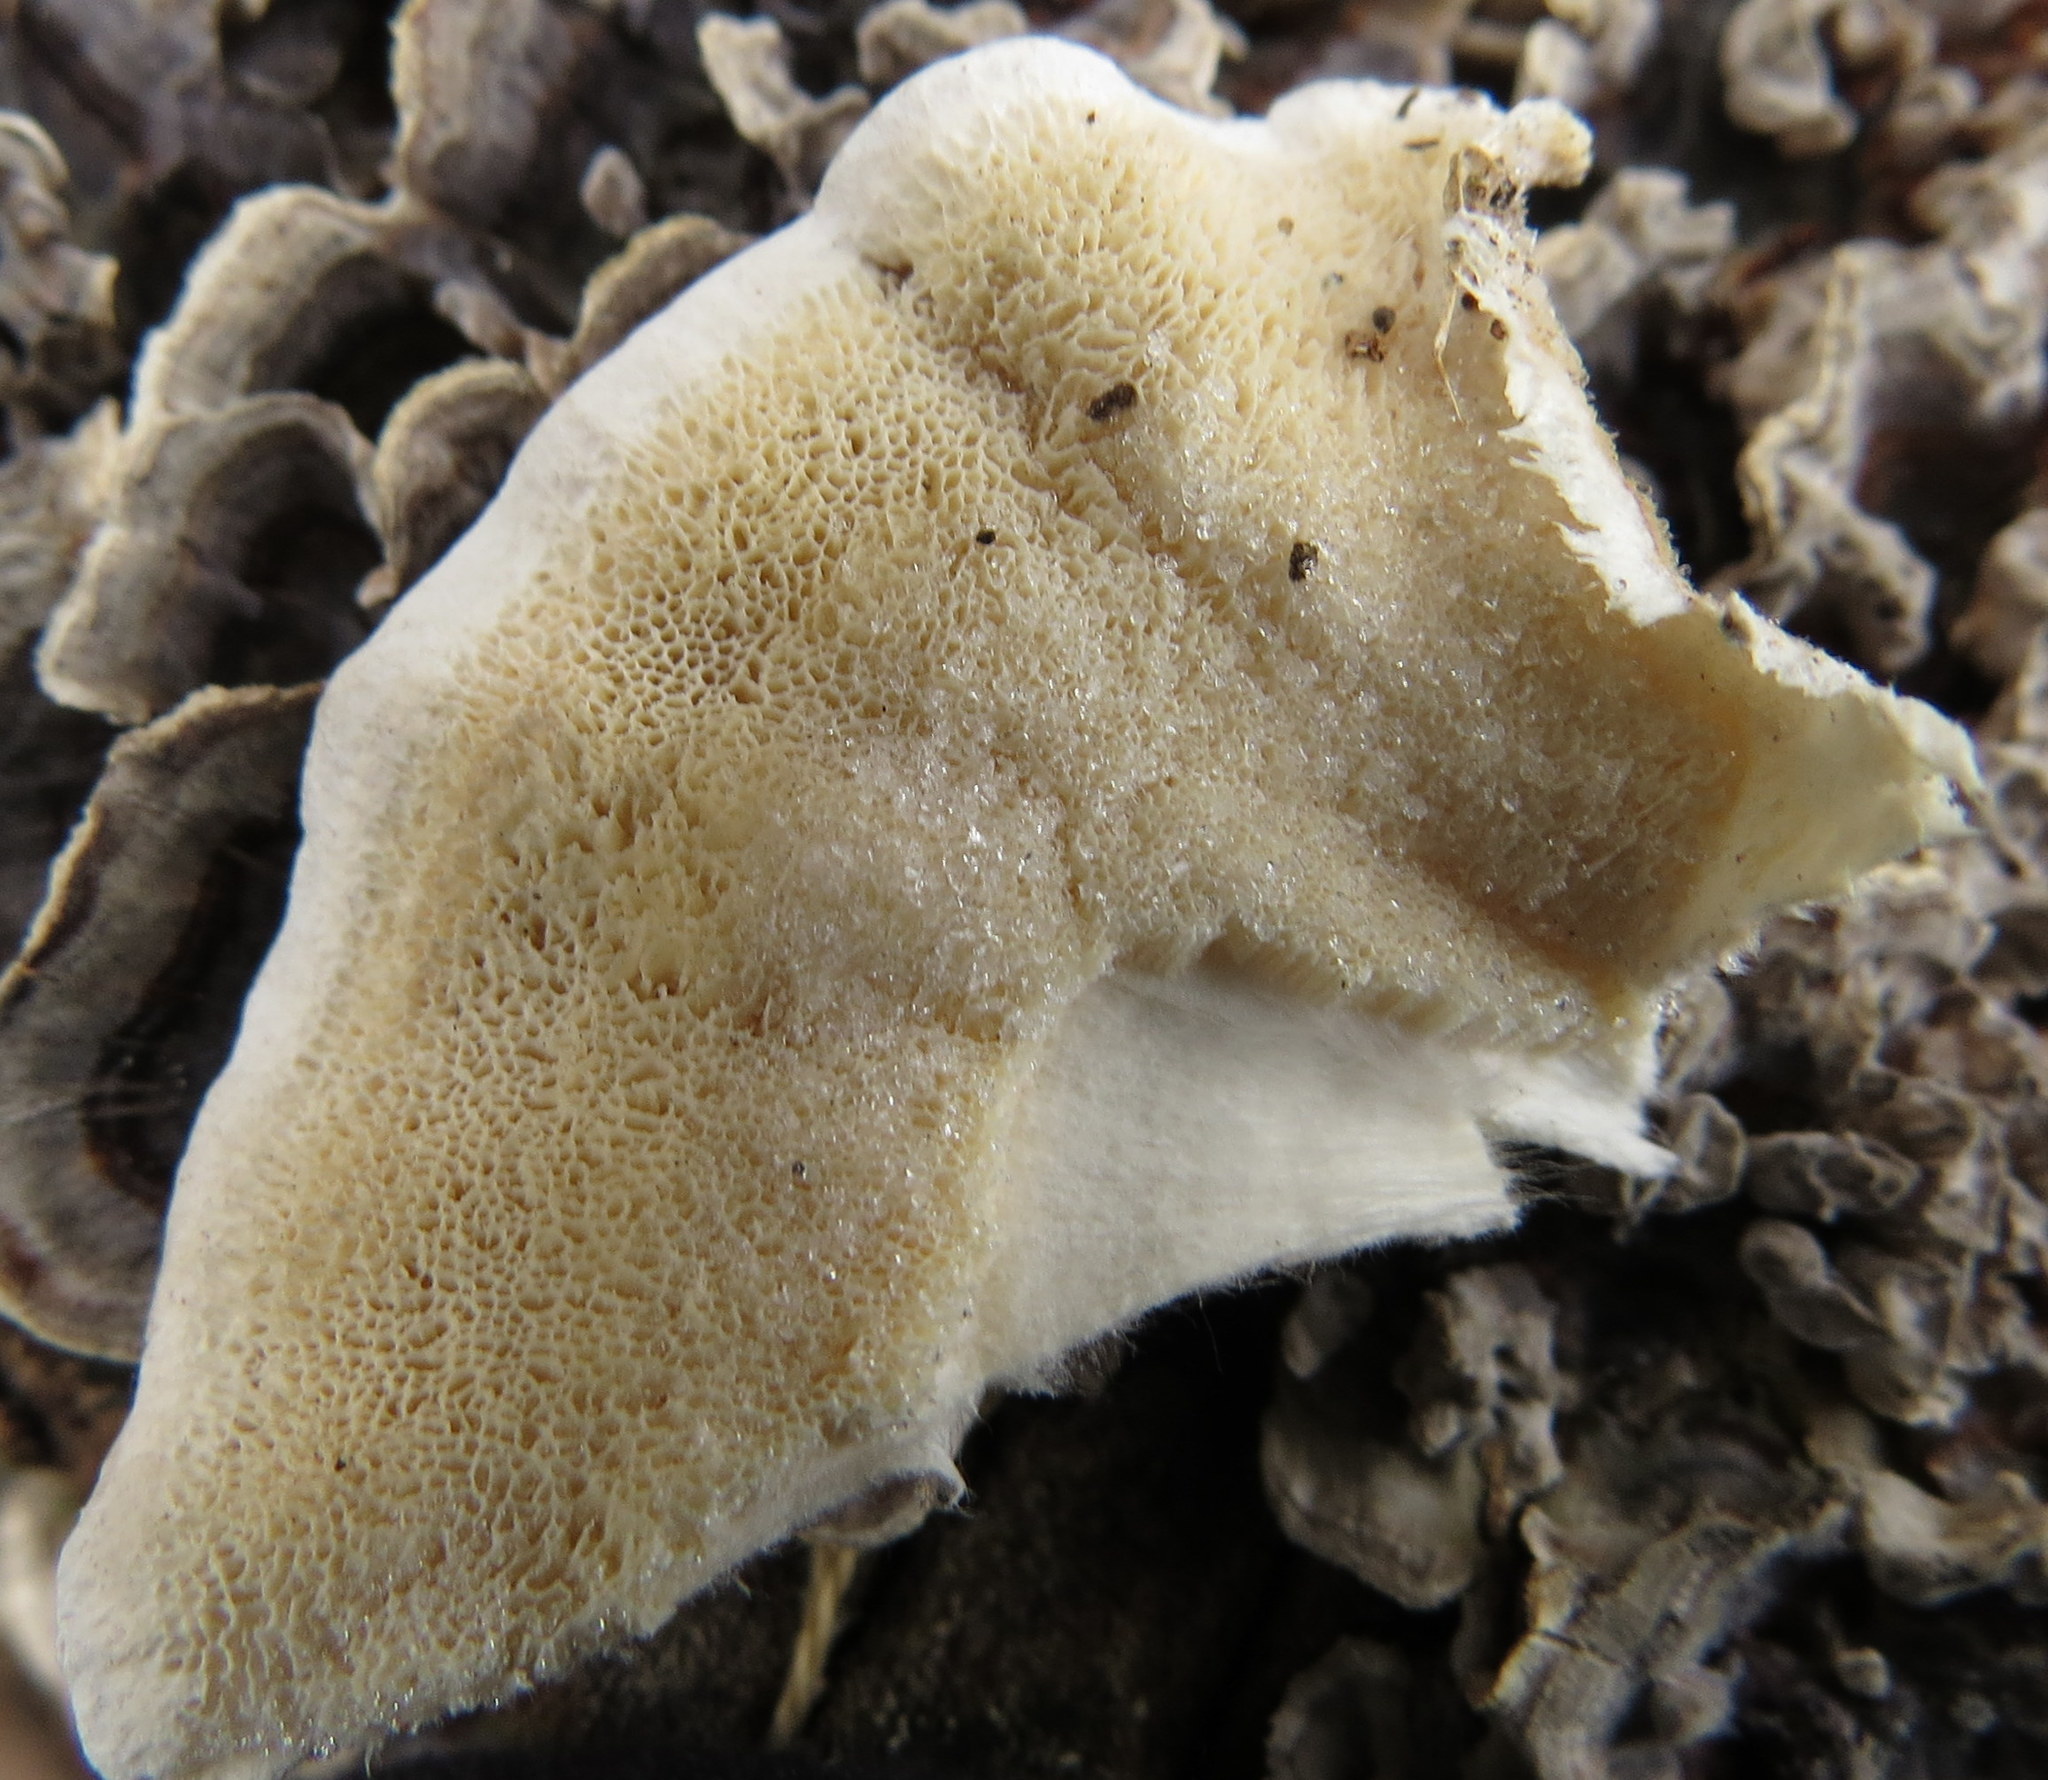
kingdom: Fungi
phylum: Basidiomycota
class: Agaricomycetes
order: Polyporales
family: Polyporaceae
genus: Trametes
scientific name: Trametes versicolor
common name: Turkeytail
